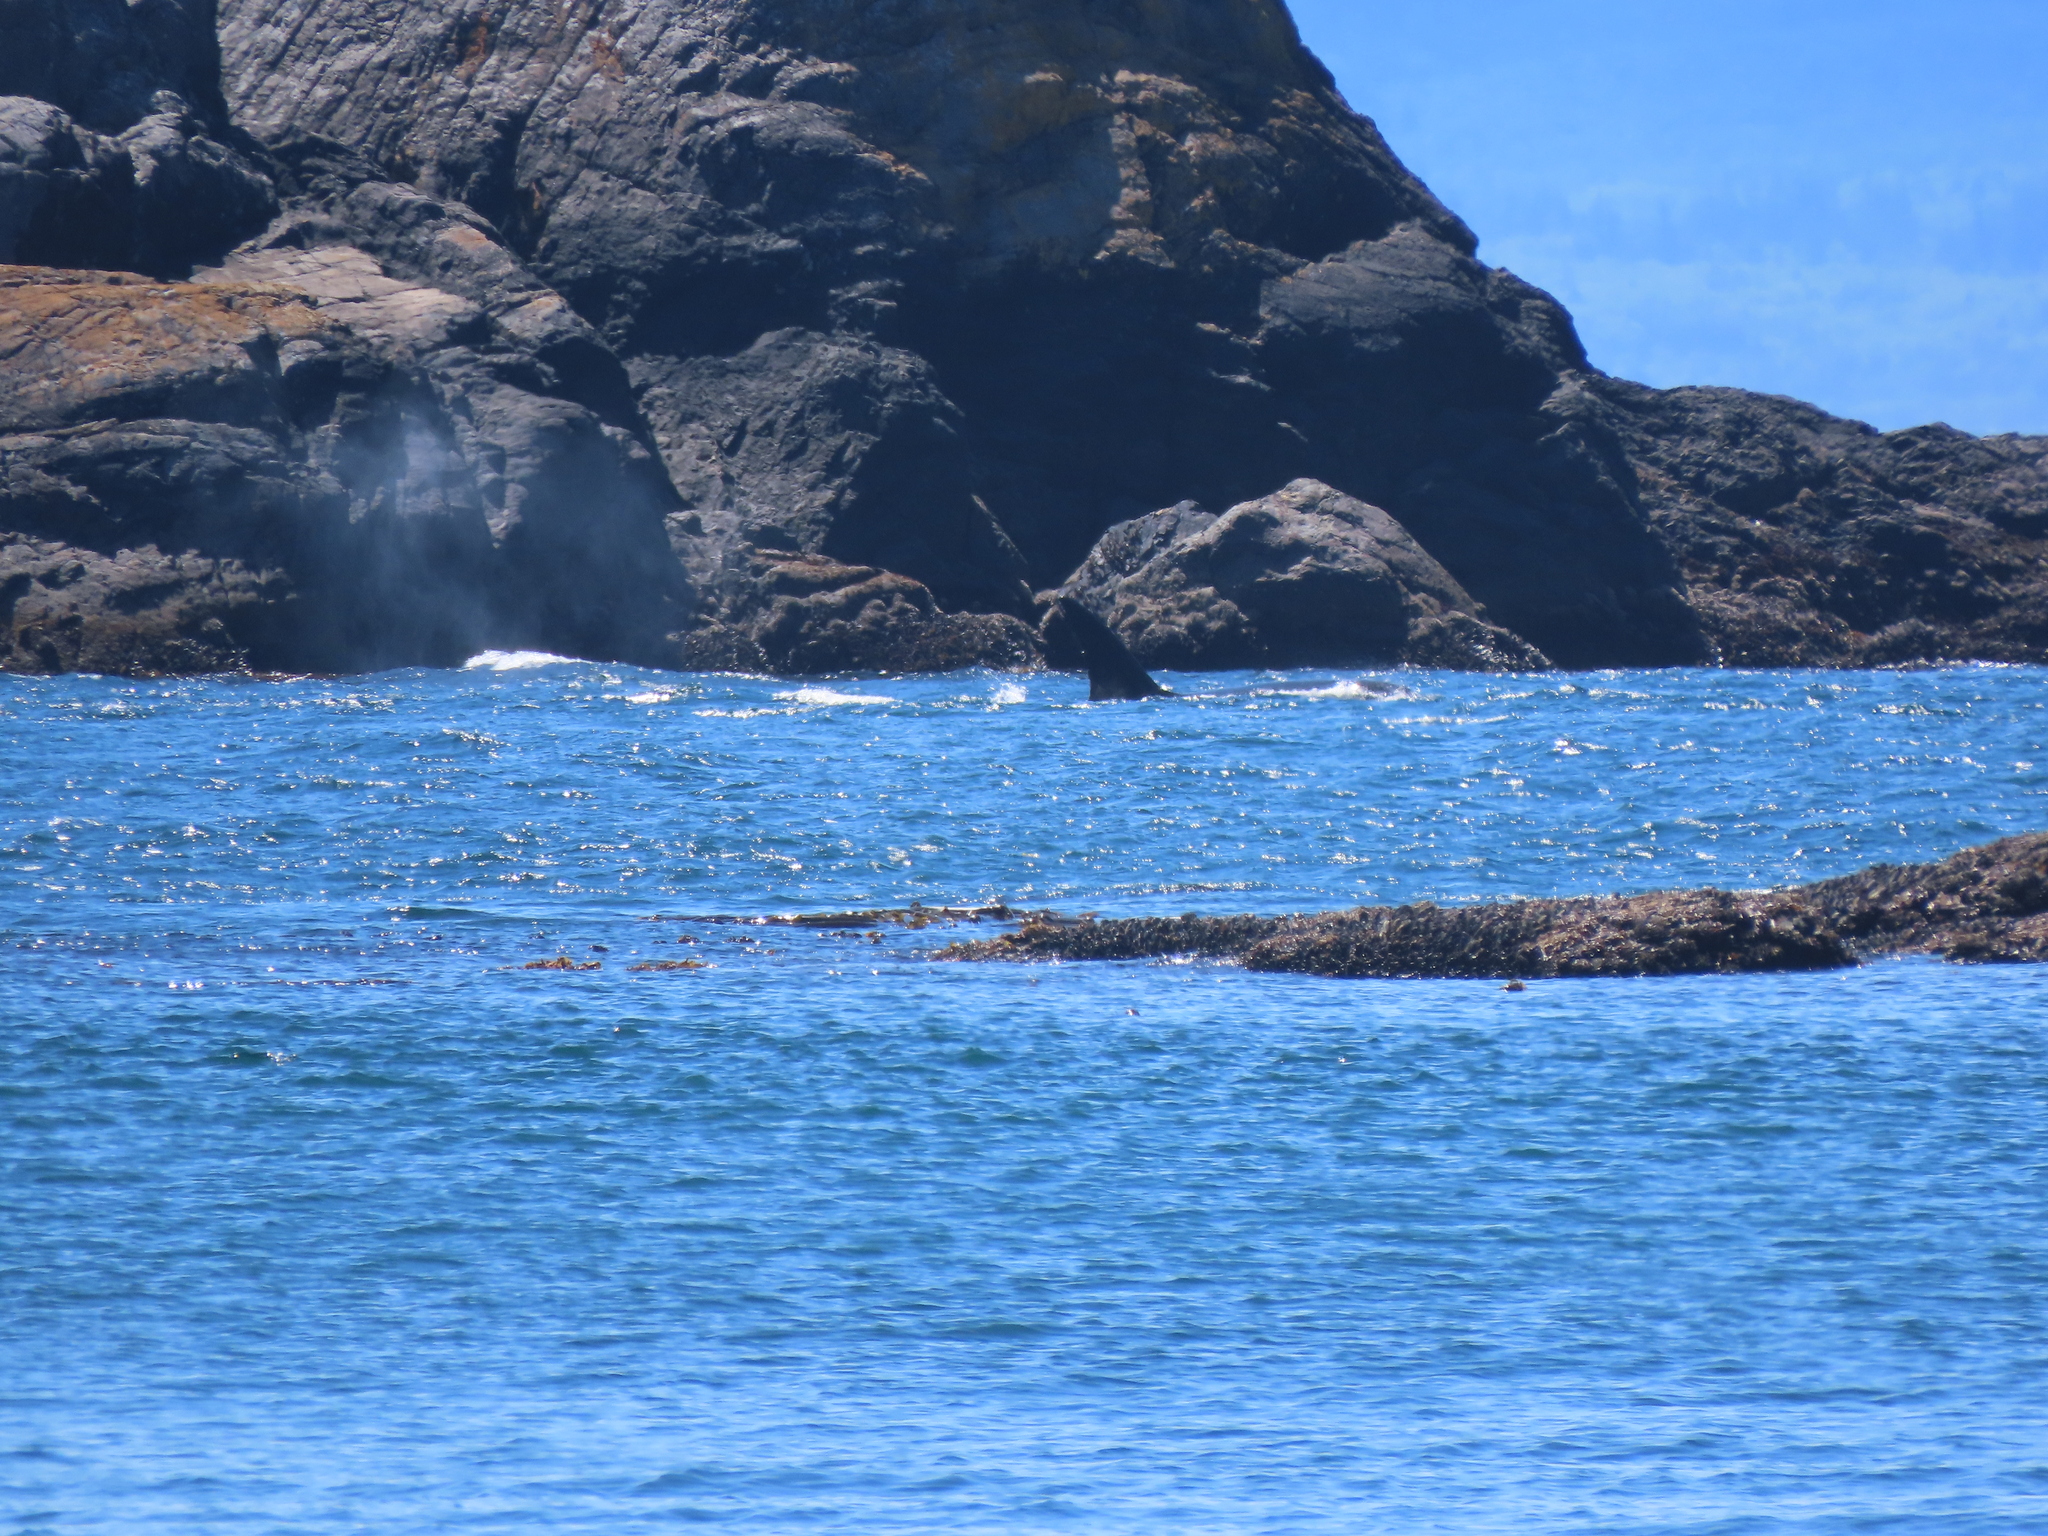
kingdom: Animalia
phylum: Chordata
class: Mammalia
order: Cetacea
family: Delphinidae
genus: Orcinus
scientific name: Orcinus orca
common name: Killer whale
